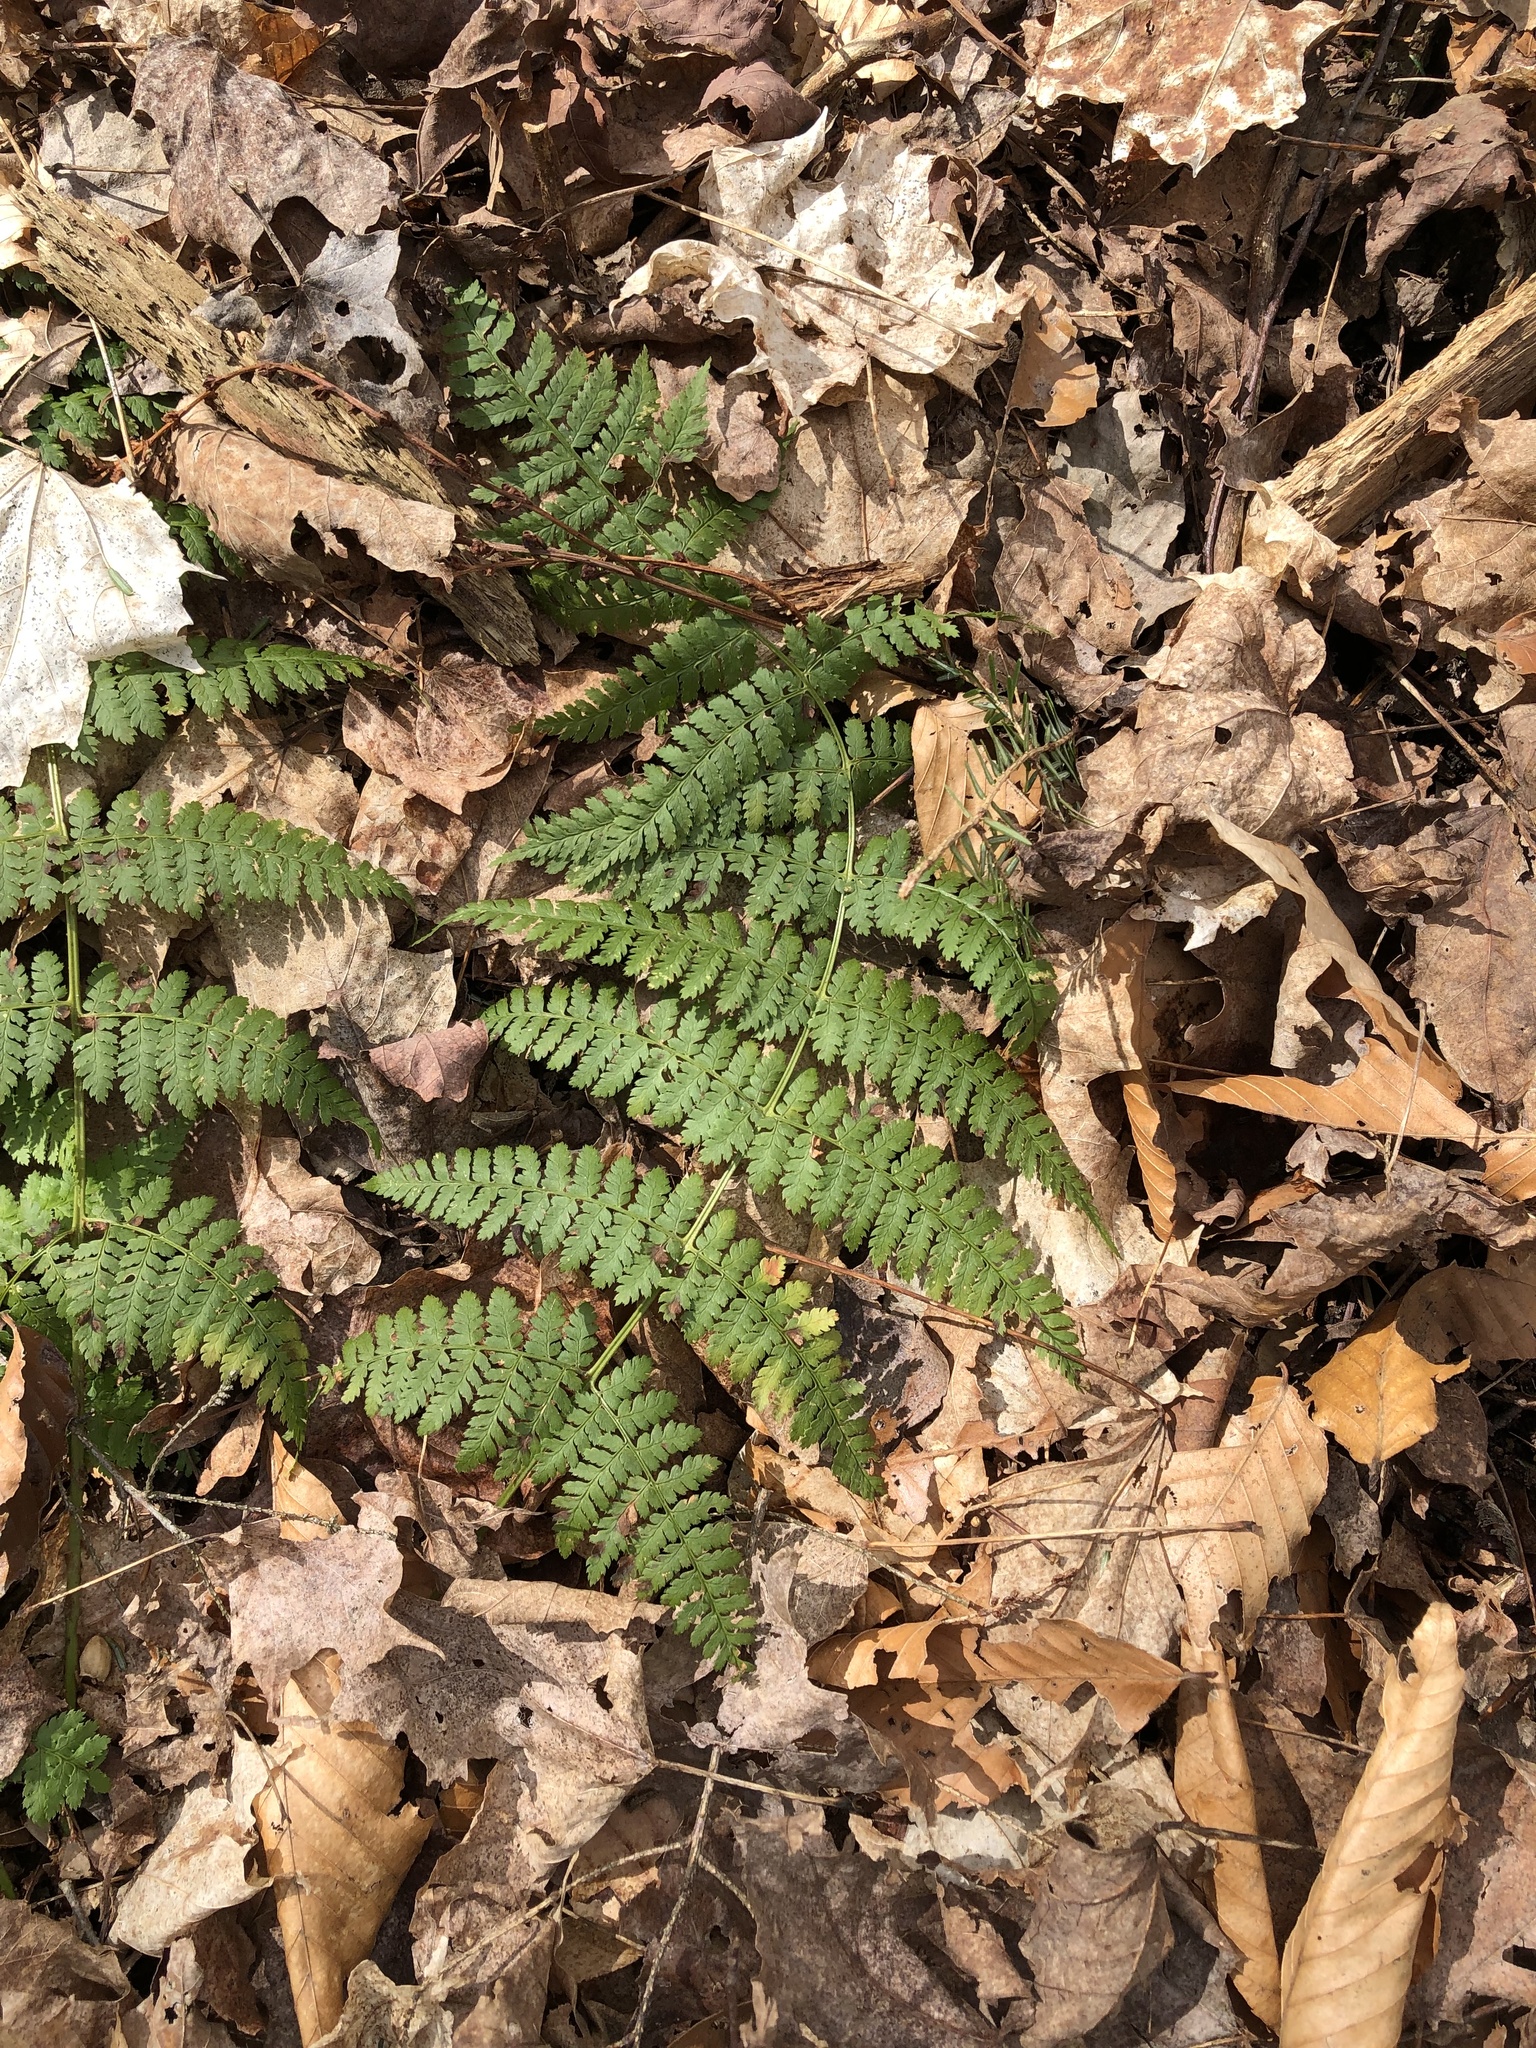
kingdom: Plantae
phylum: Tracheophyta
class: Polypodiopsida
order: Polypodiales
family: Dryopteridaceae
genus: Dryopteris
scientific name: Dryopteris intermedia
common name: Evergreen wood fern
